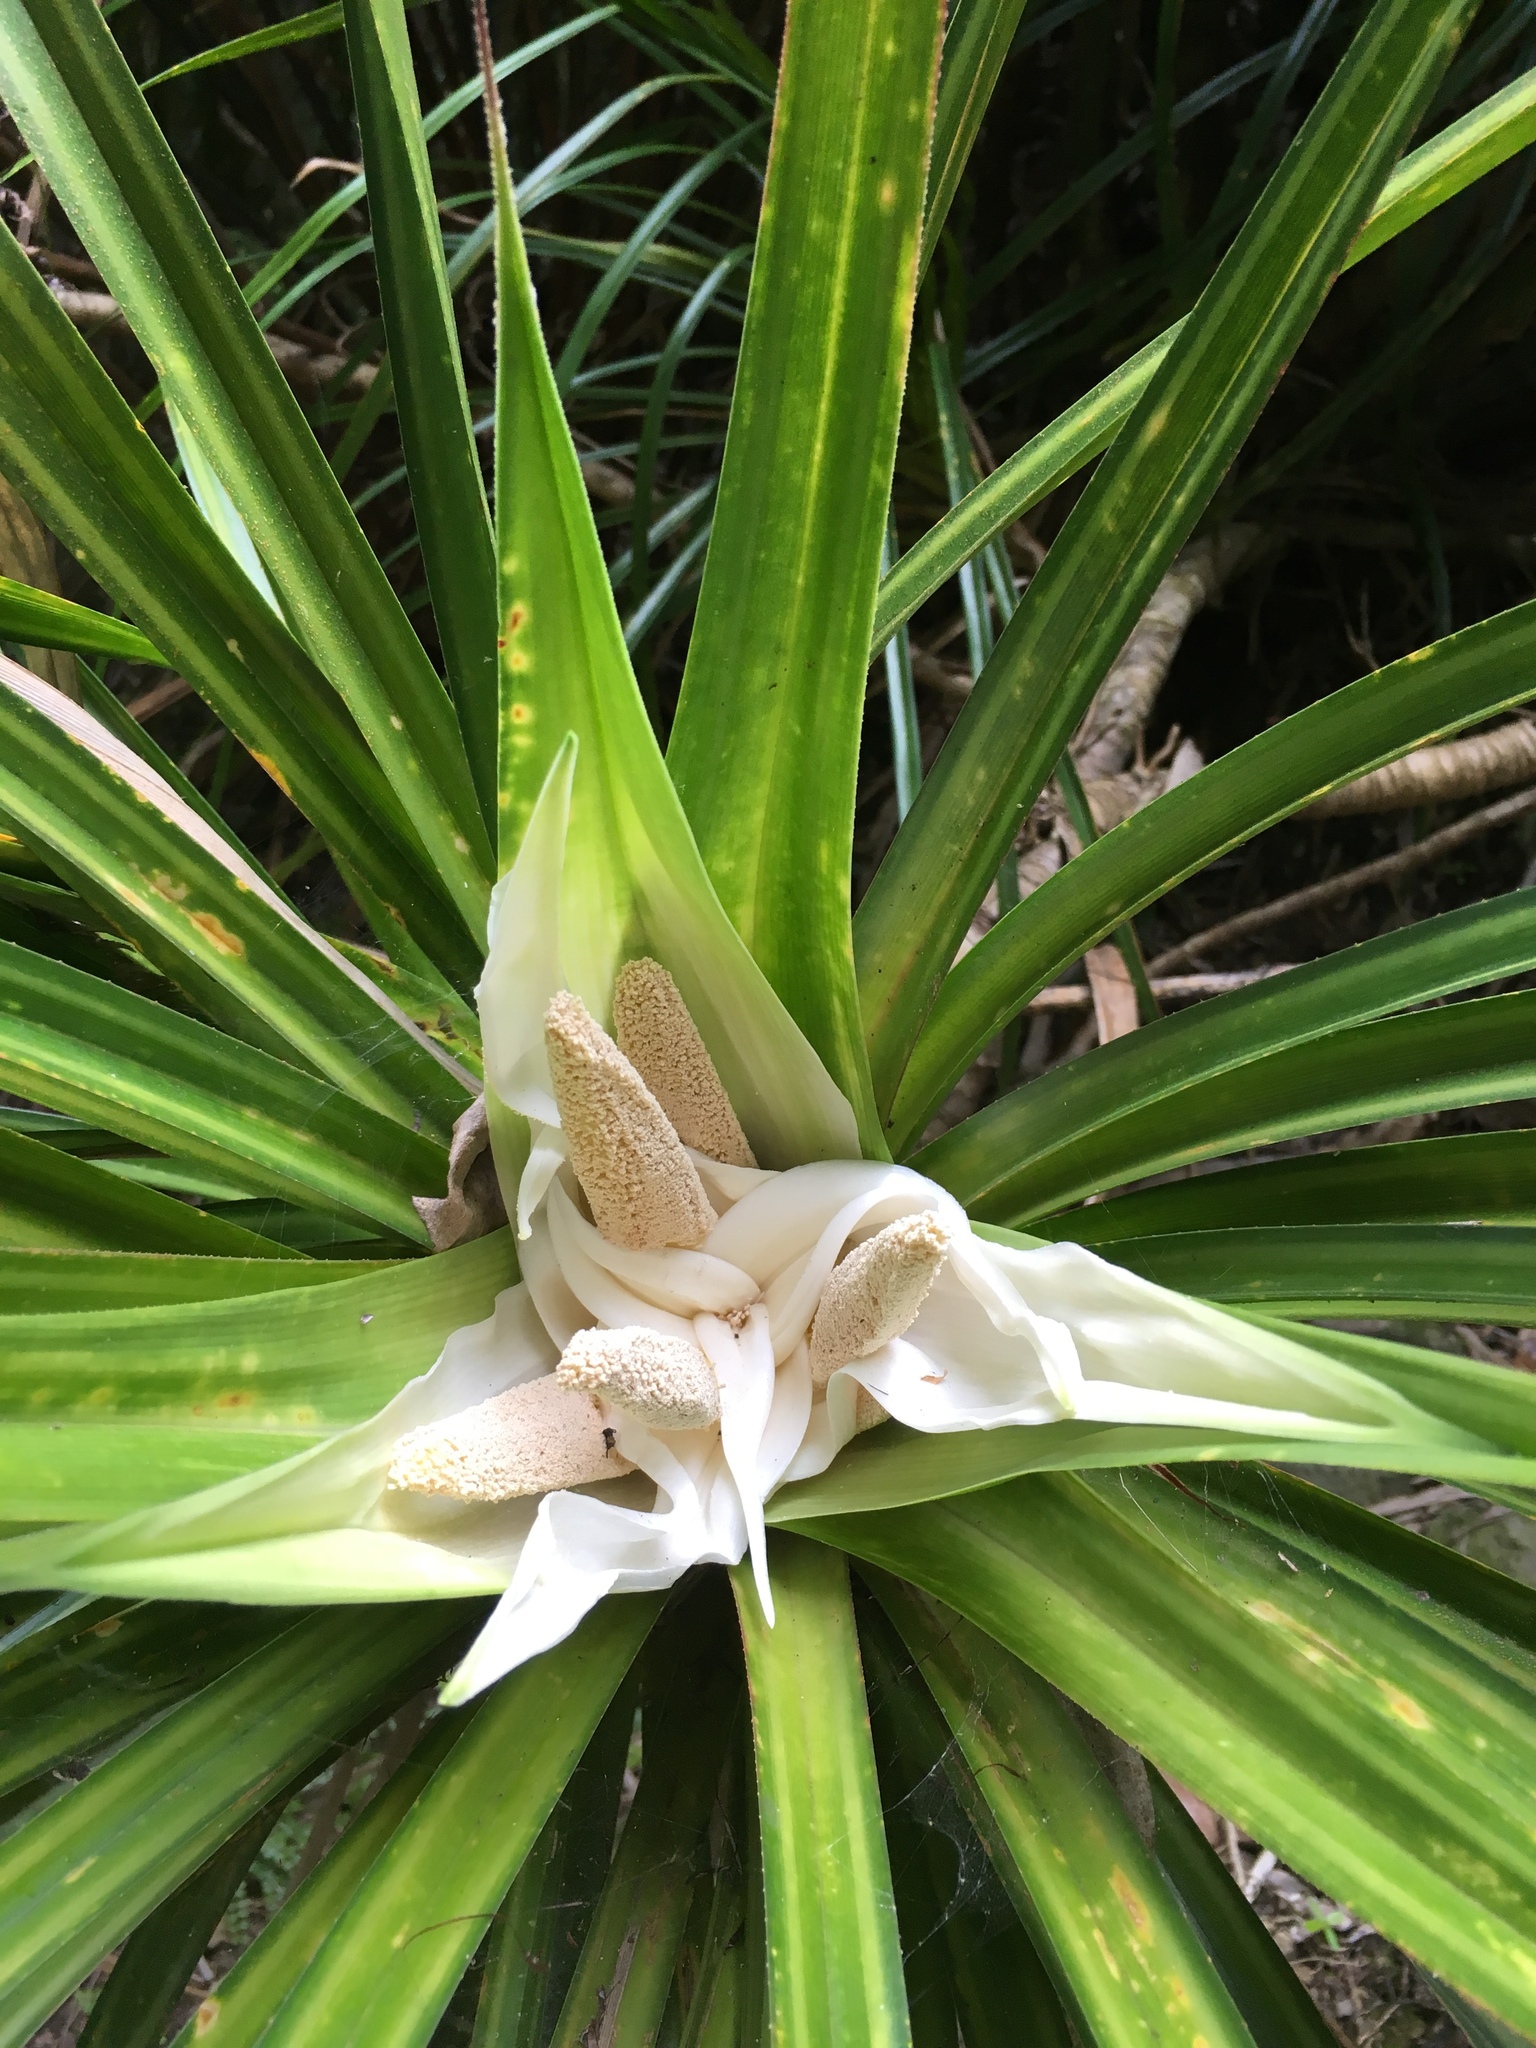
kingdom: Plantae
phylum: Tracheophyta
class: Liliopsida
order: Pandanales
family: Pandanaceae
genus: Freycinetia
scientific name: Freycinetia banksii
